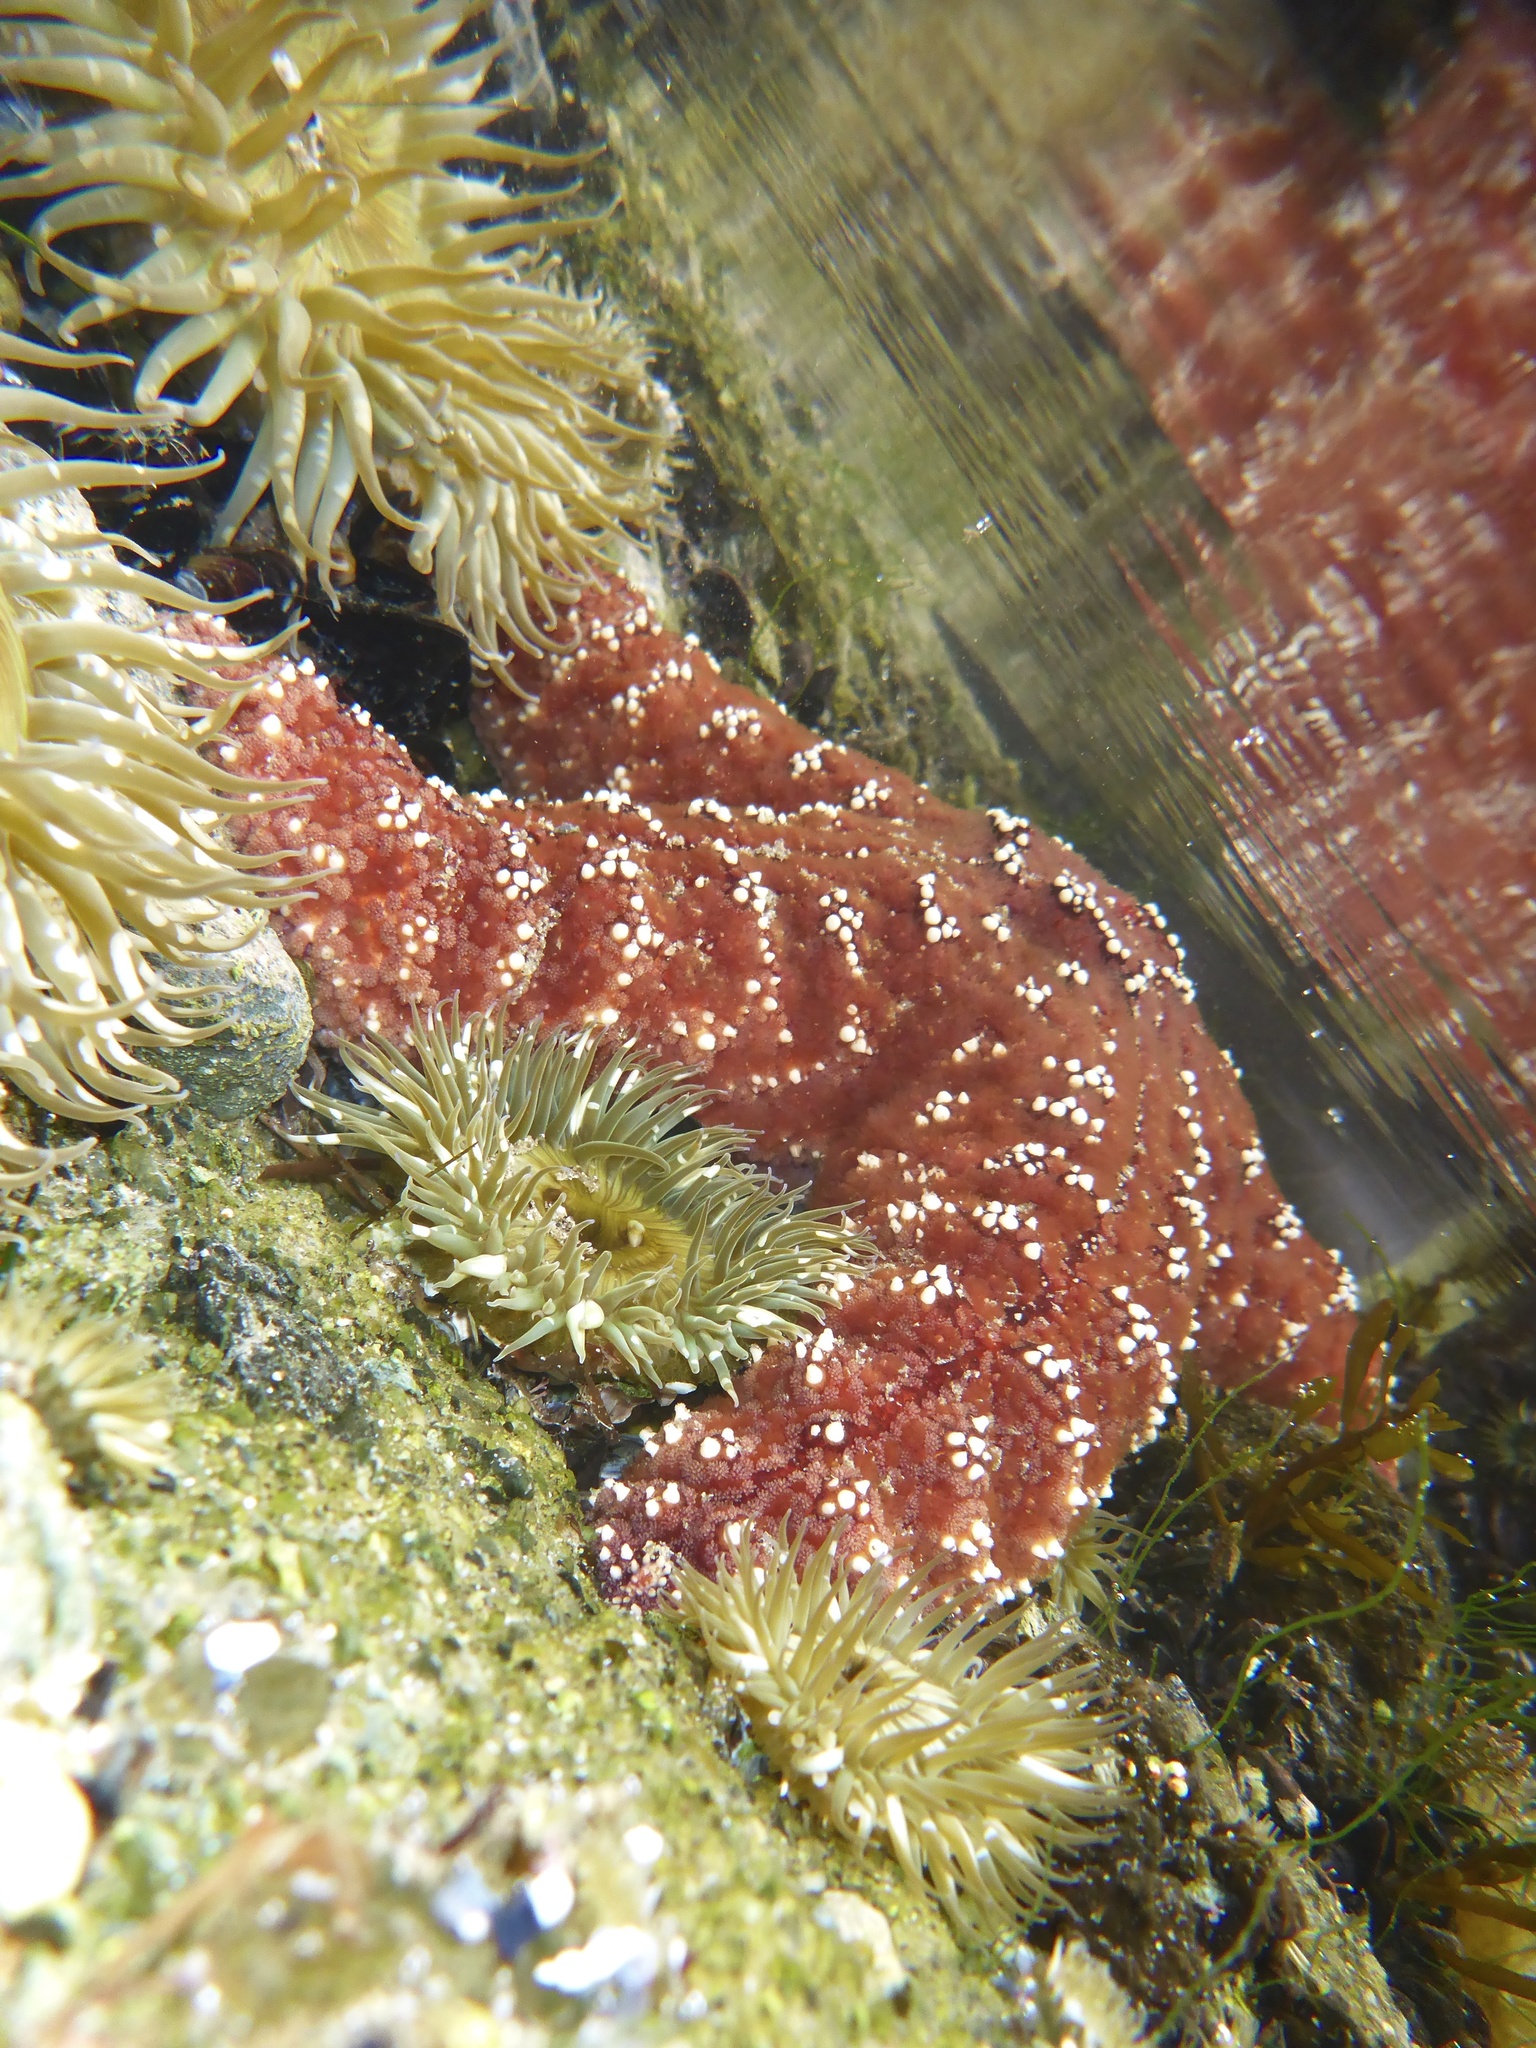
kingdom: Animalia
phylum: Echinodermata
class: Asteroidea
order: Forcipulatida
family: Asteriidae
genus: Pisaster
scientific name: Pisaster ochraceus
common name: Ochre stars
